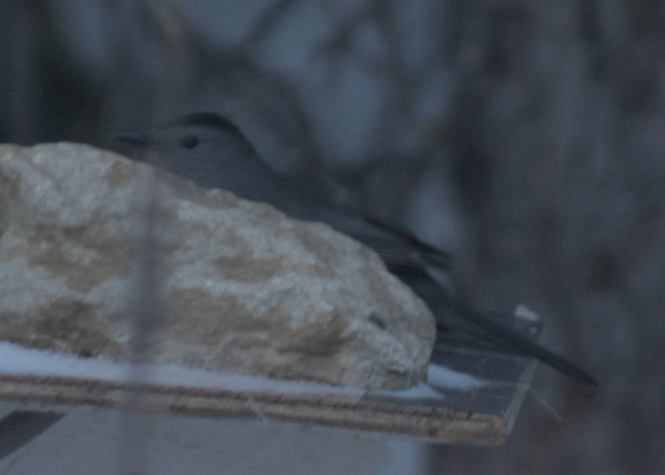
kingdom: Animalia
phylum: Chordata
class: Aves
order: Passeriformes
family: Mimidae
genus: Dumetella
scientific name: Dumetella carolinensis
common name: Gray catbird
